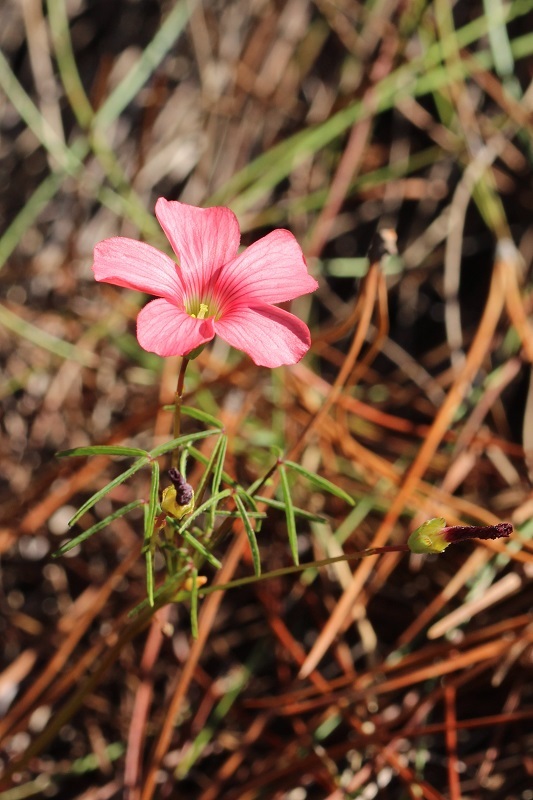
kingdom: Plantae
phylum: Tracheophyta
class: Magnoliopsida
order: Oxalidales
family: Oxalidaceae
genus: Oxalis
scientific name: Oxalis pendulifolia
